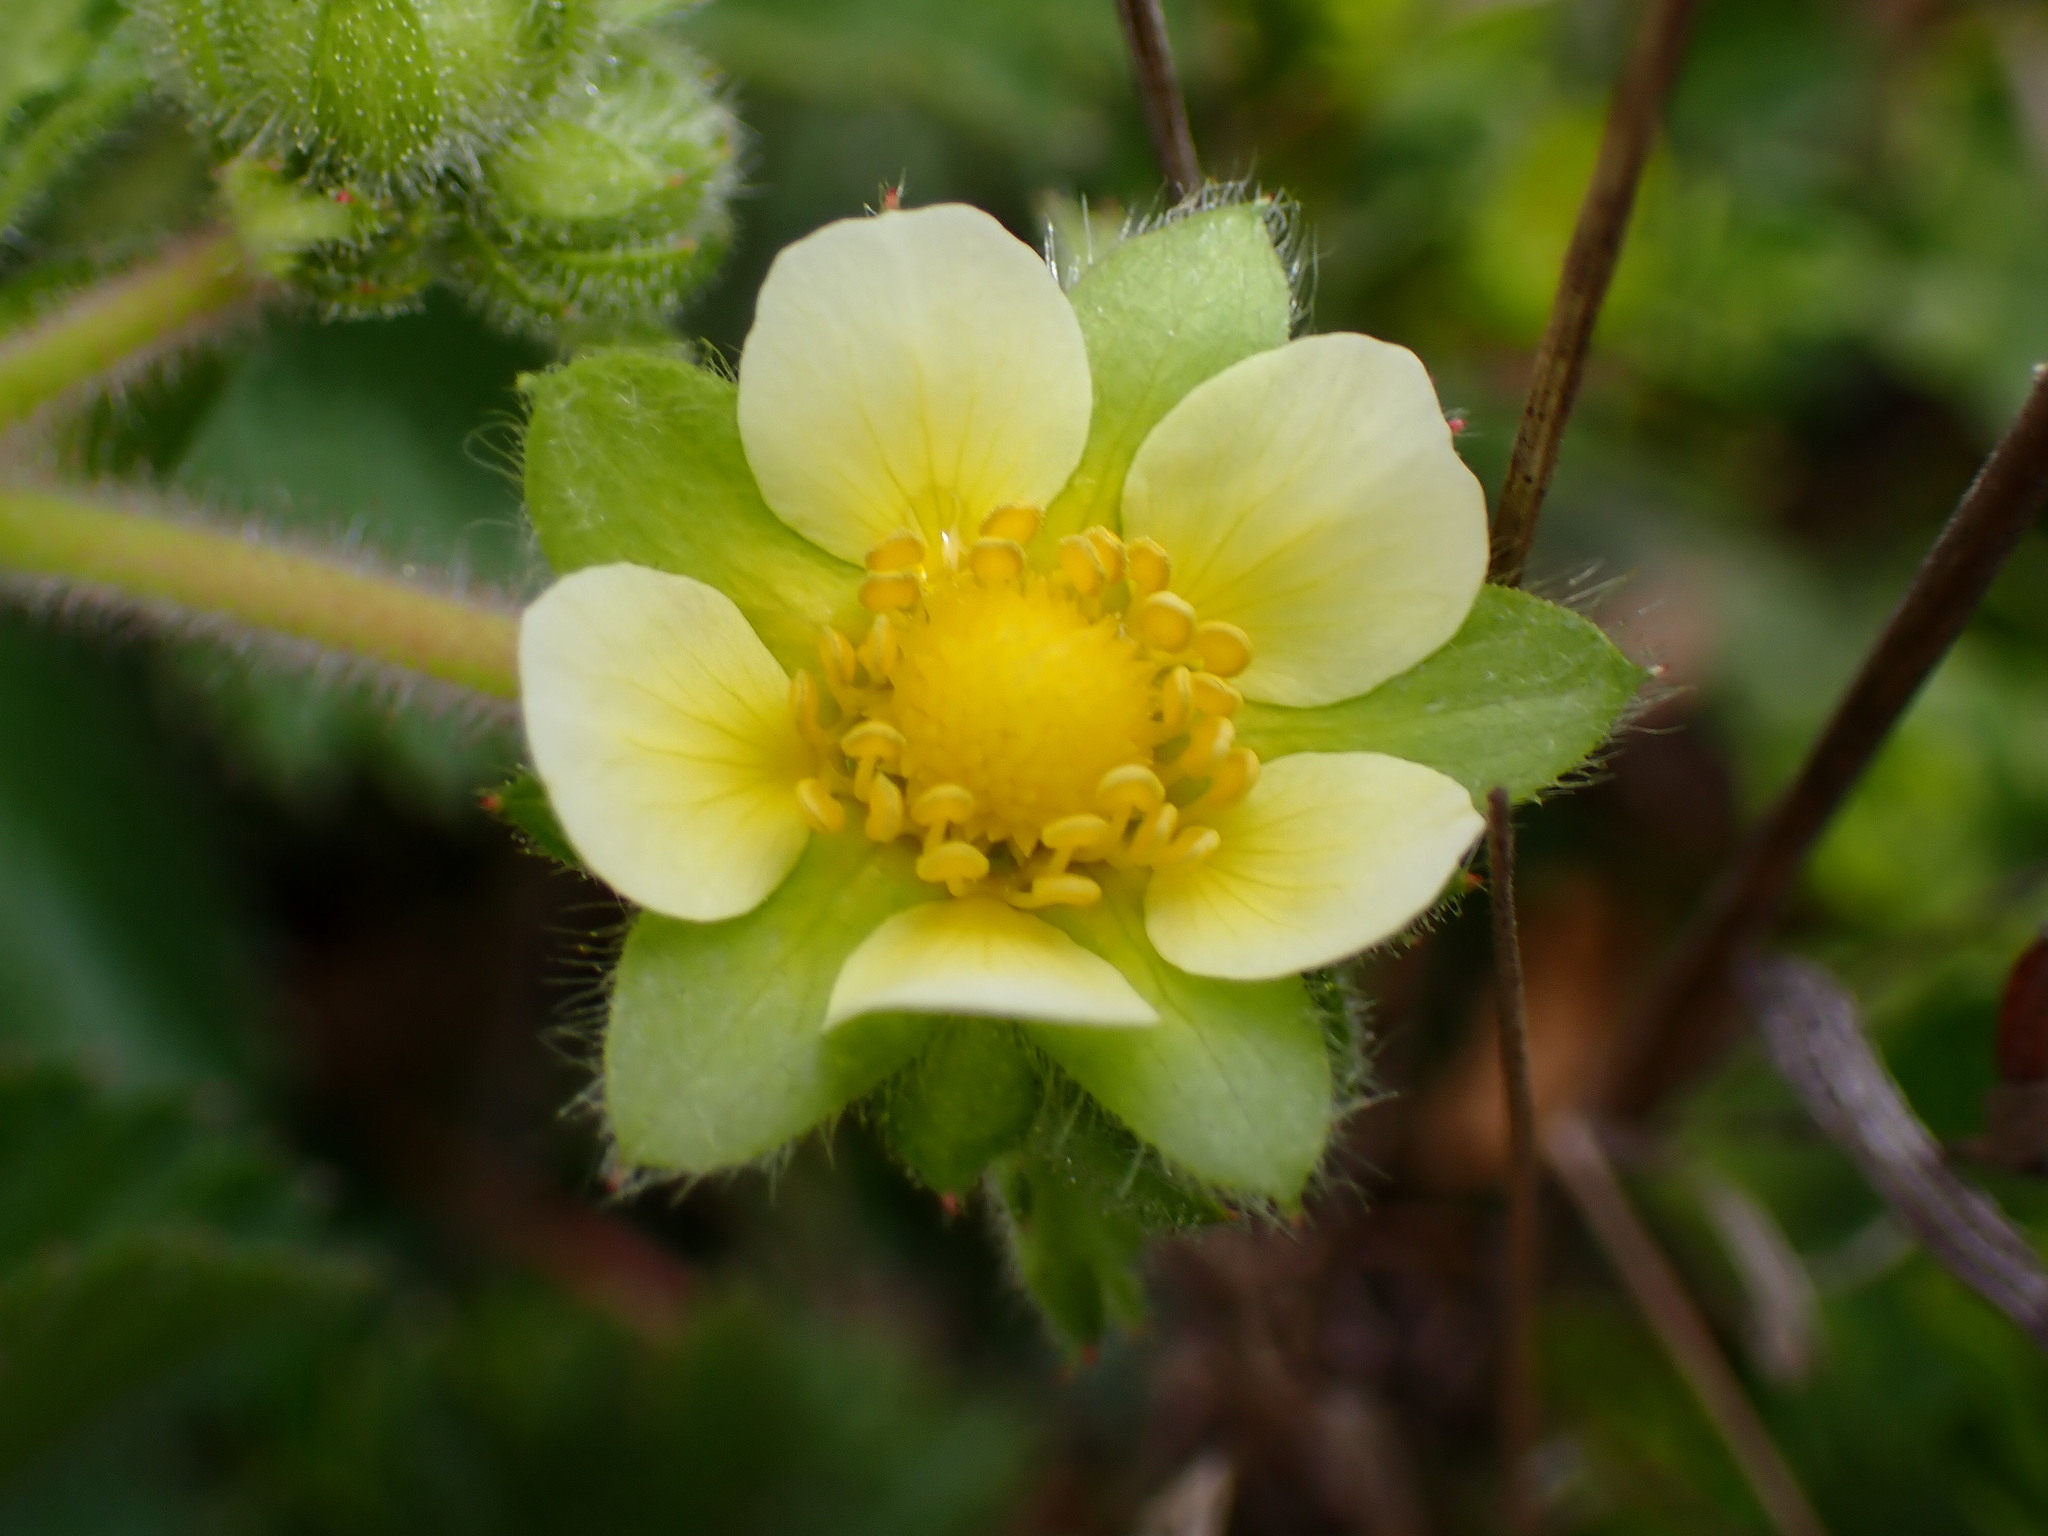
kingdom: Plantae
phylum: Tracheophyta
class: Magnoliopsida
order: Rosales
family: Rosaceae
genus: Drymocallis
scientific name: Drymocallis glandulosa
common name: Sticky cinquefoil
